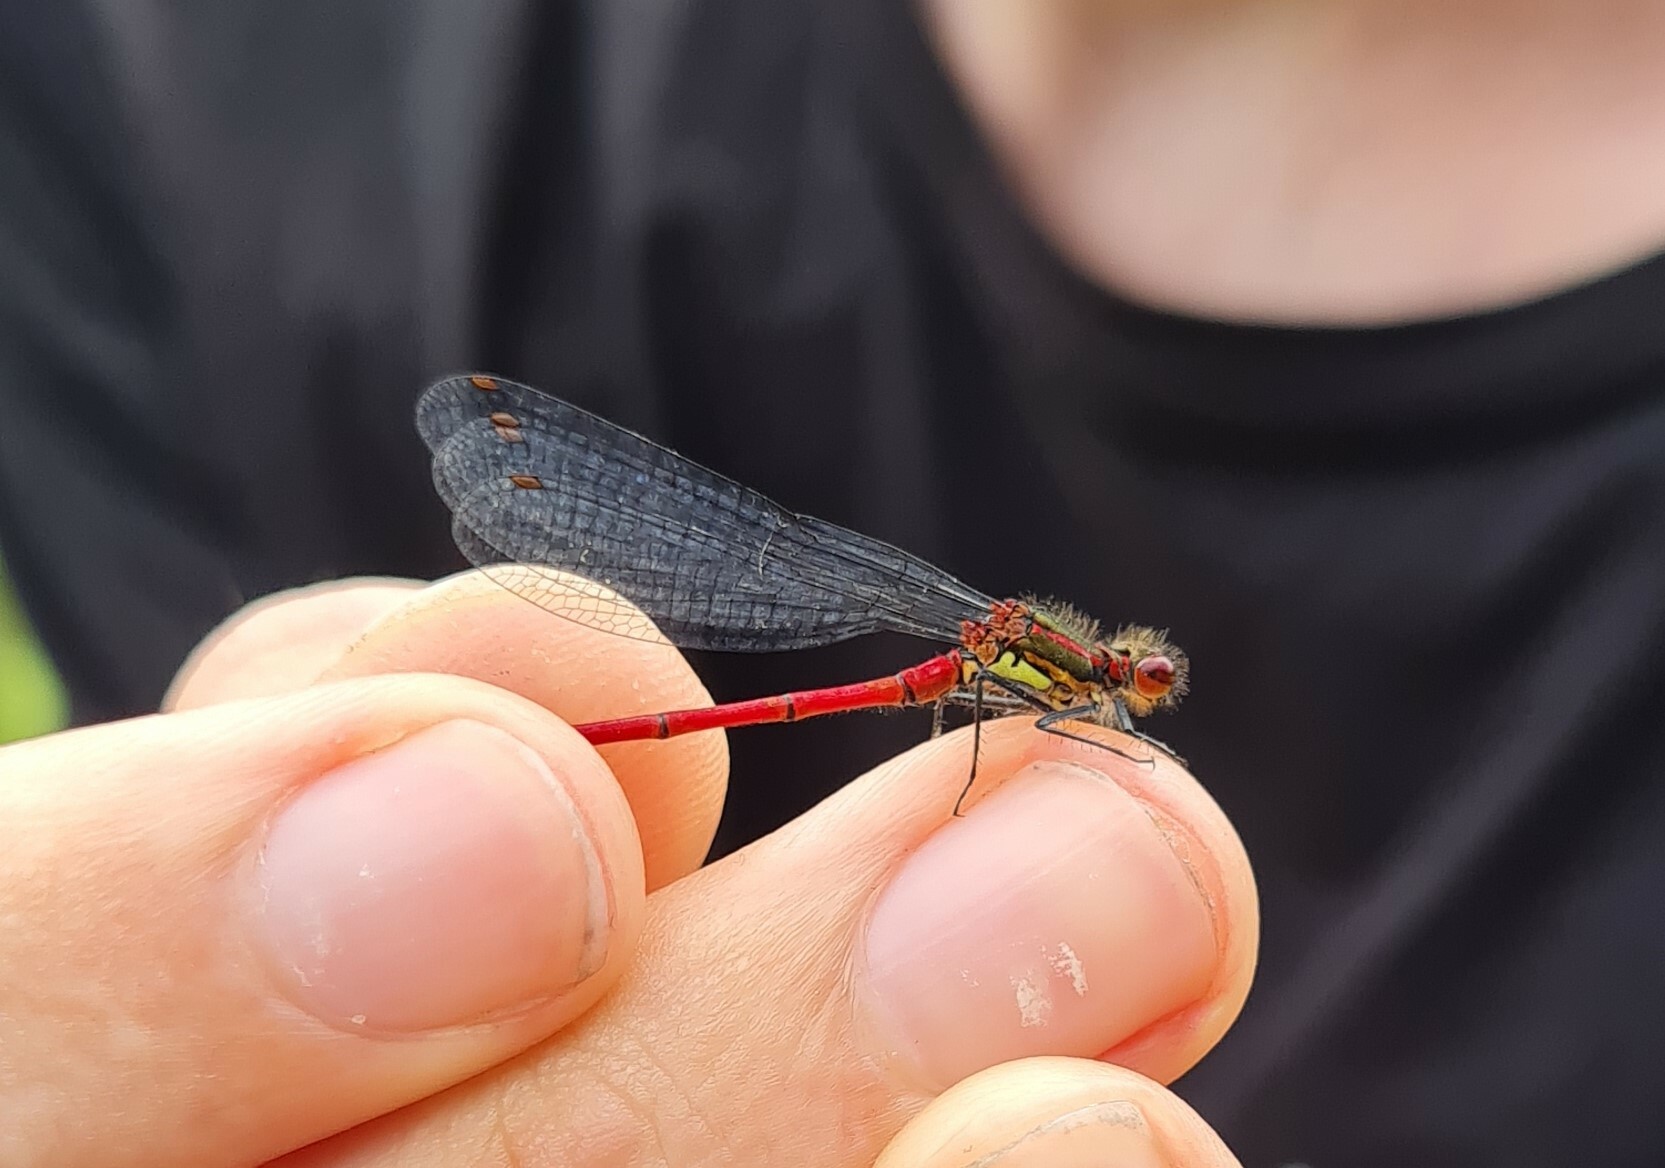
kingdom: Animalia
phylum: Arthropoda
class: Insecta
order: Odonata
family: Coenagrionidae
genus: Pyrrhosoma
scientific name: Pyrrhosoma nymphula
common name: Large red damsel
